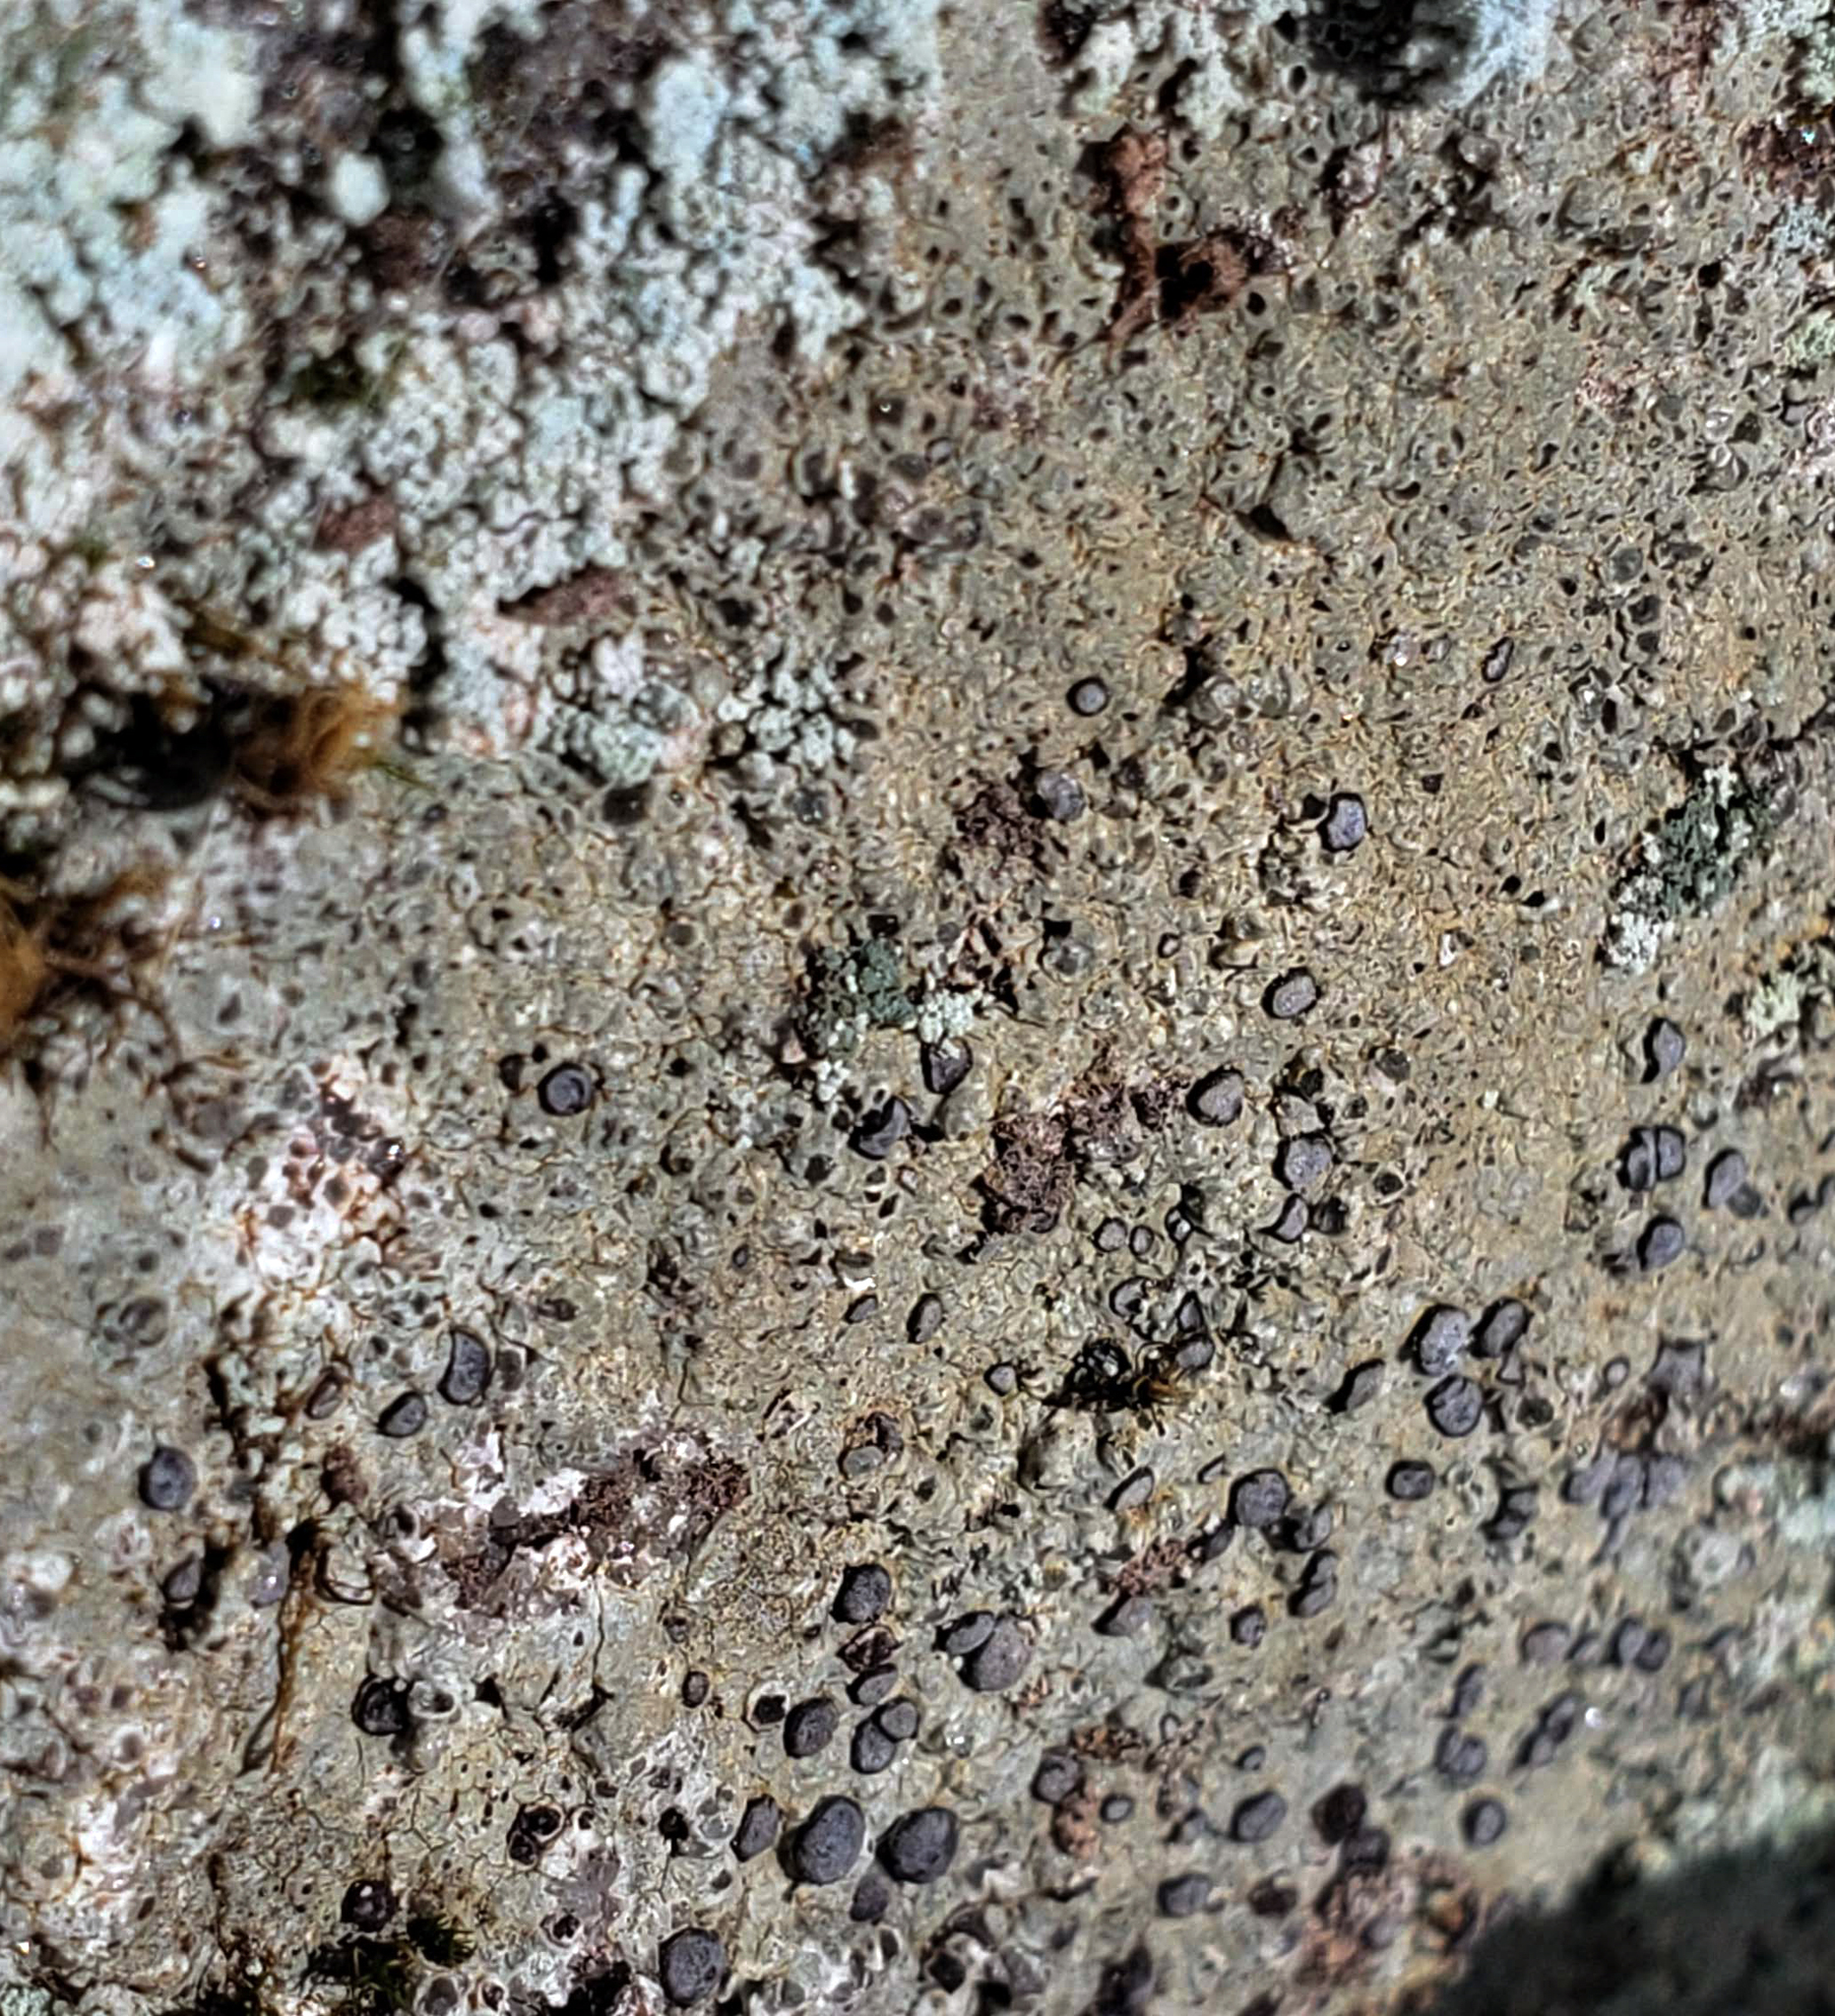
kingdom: Fungi
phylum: Ascomycota
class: Lecanoromycetes
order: Lecideales
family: Lecideaceae
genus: Porpidia
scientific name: Porpidia albocaerulescens
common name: Smokey-eyed boulder lichen
